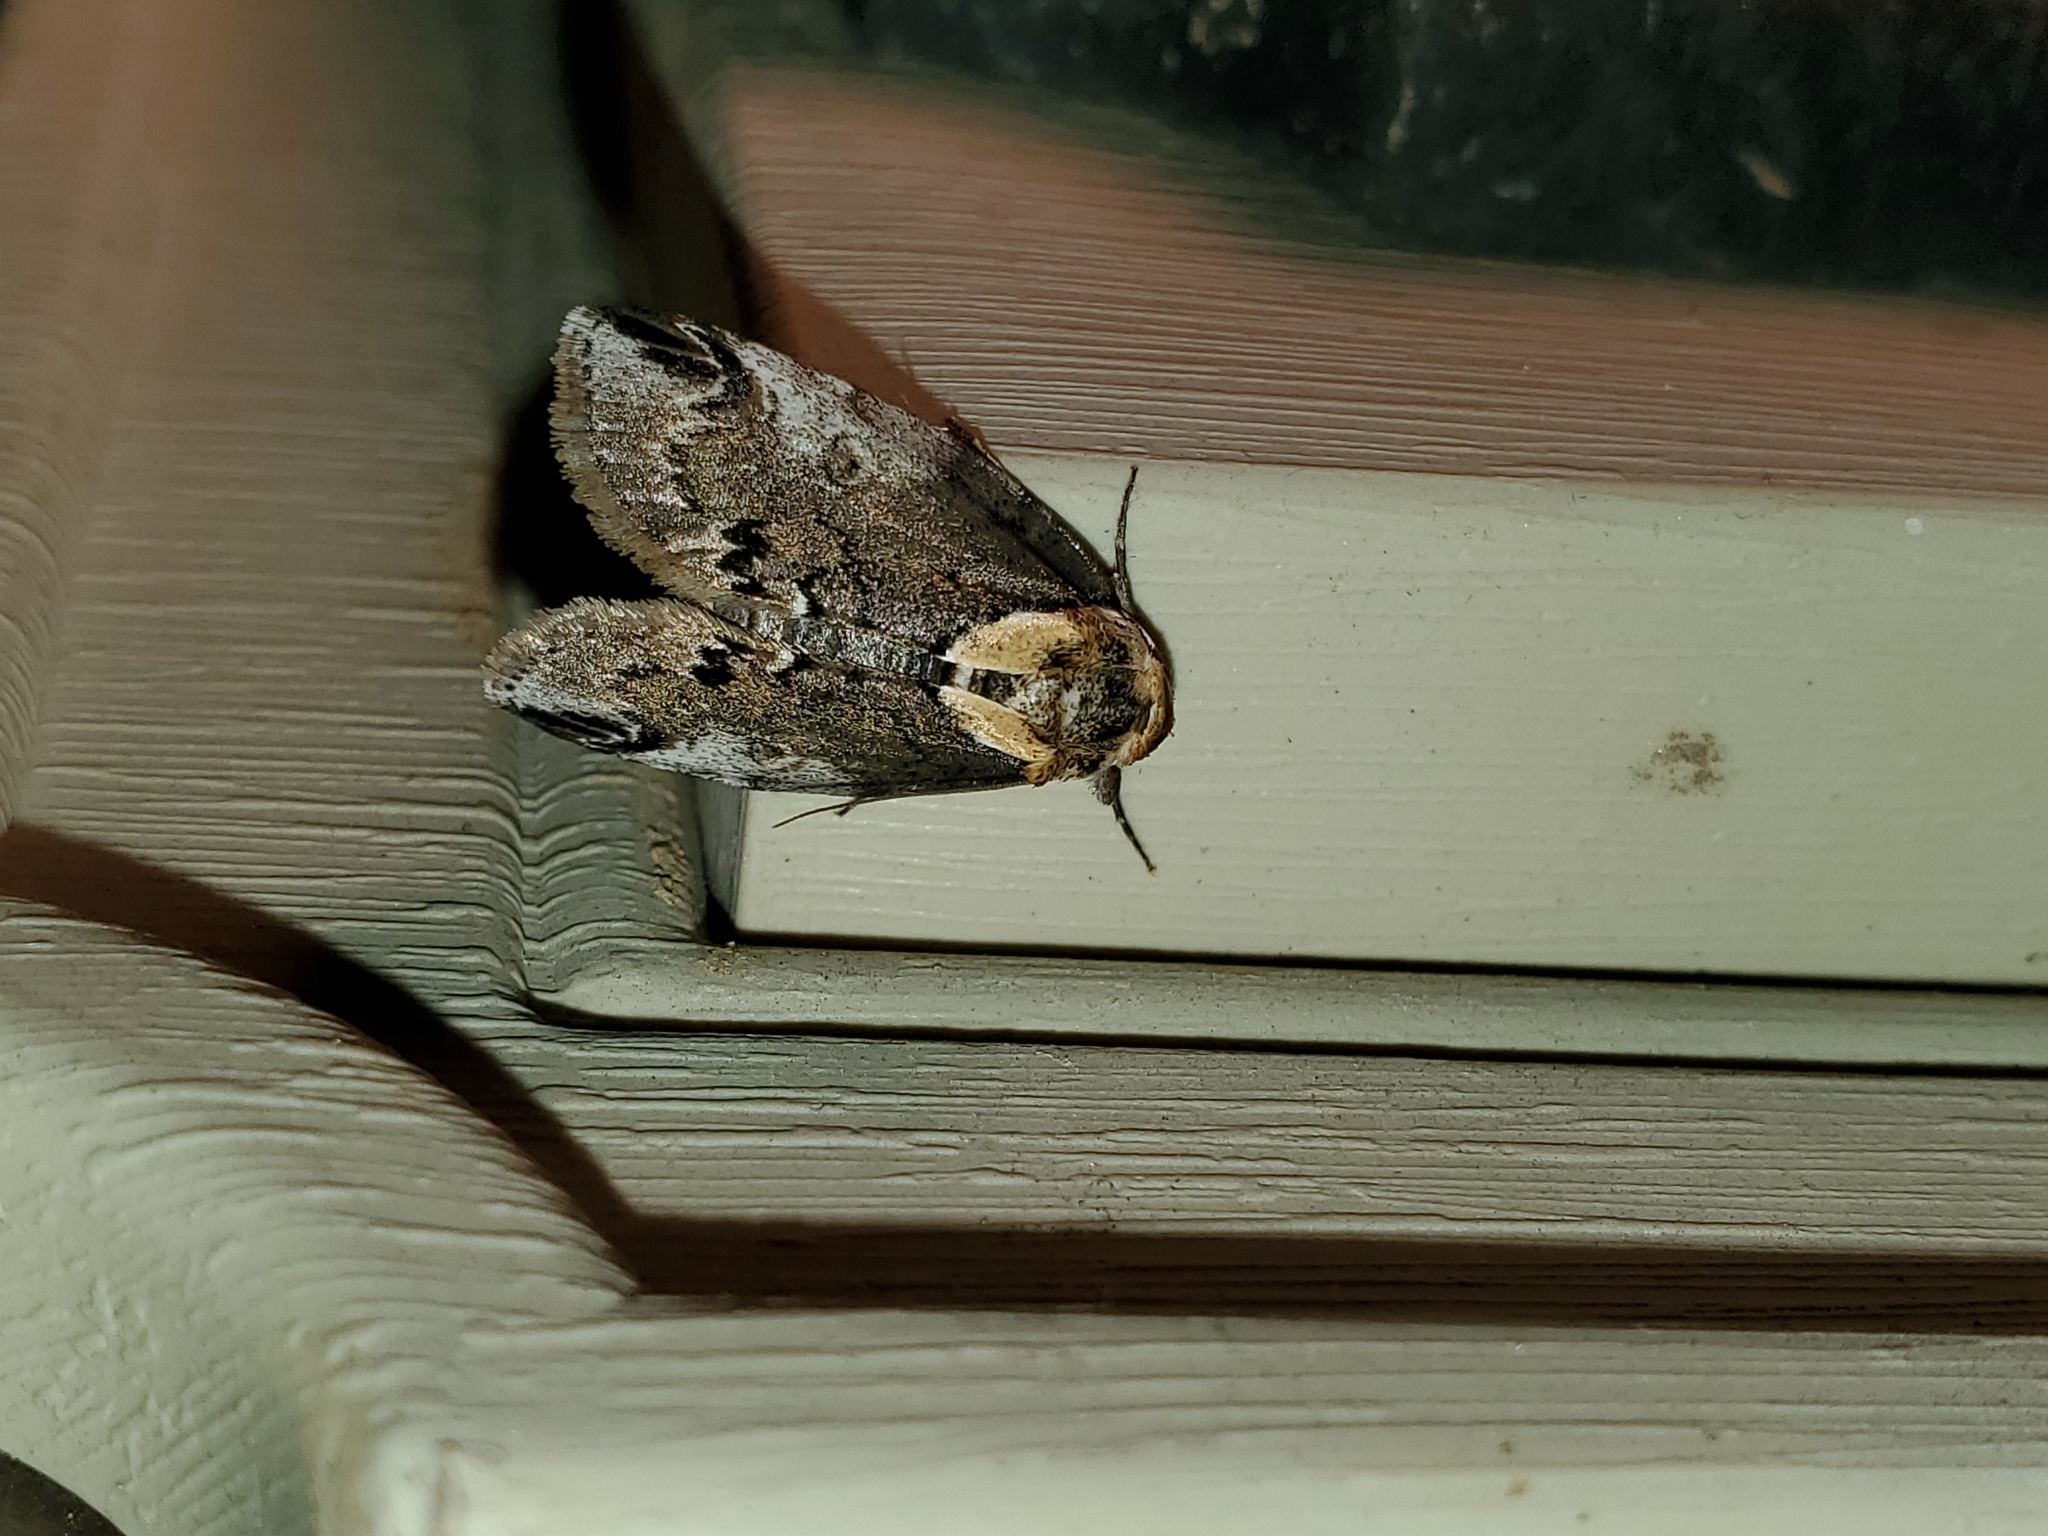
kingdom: Animalia
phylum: Arthropoda
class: Insecta
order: Lepidoptera
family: Nolidae
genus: Baileya
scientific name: Baileya ophthalmica
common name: Eyed baileya moth
